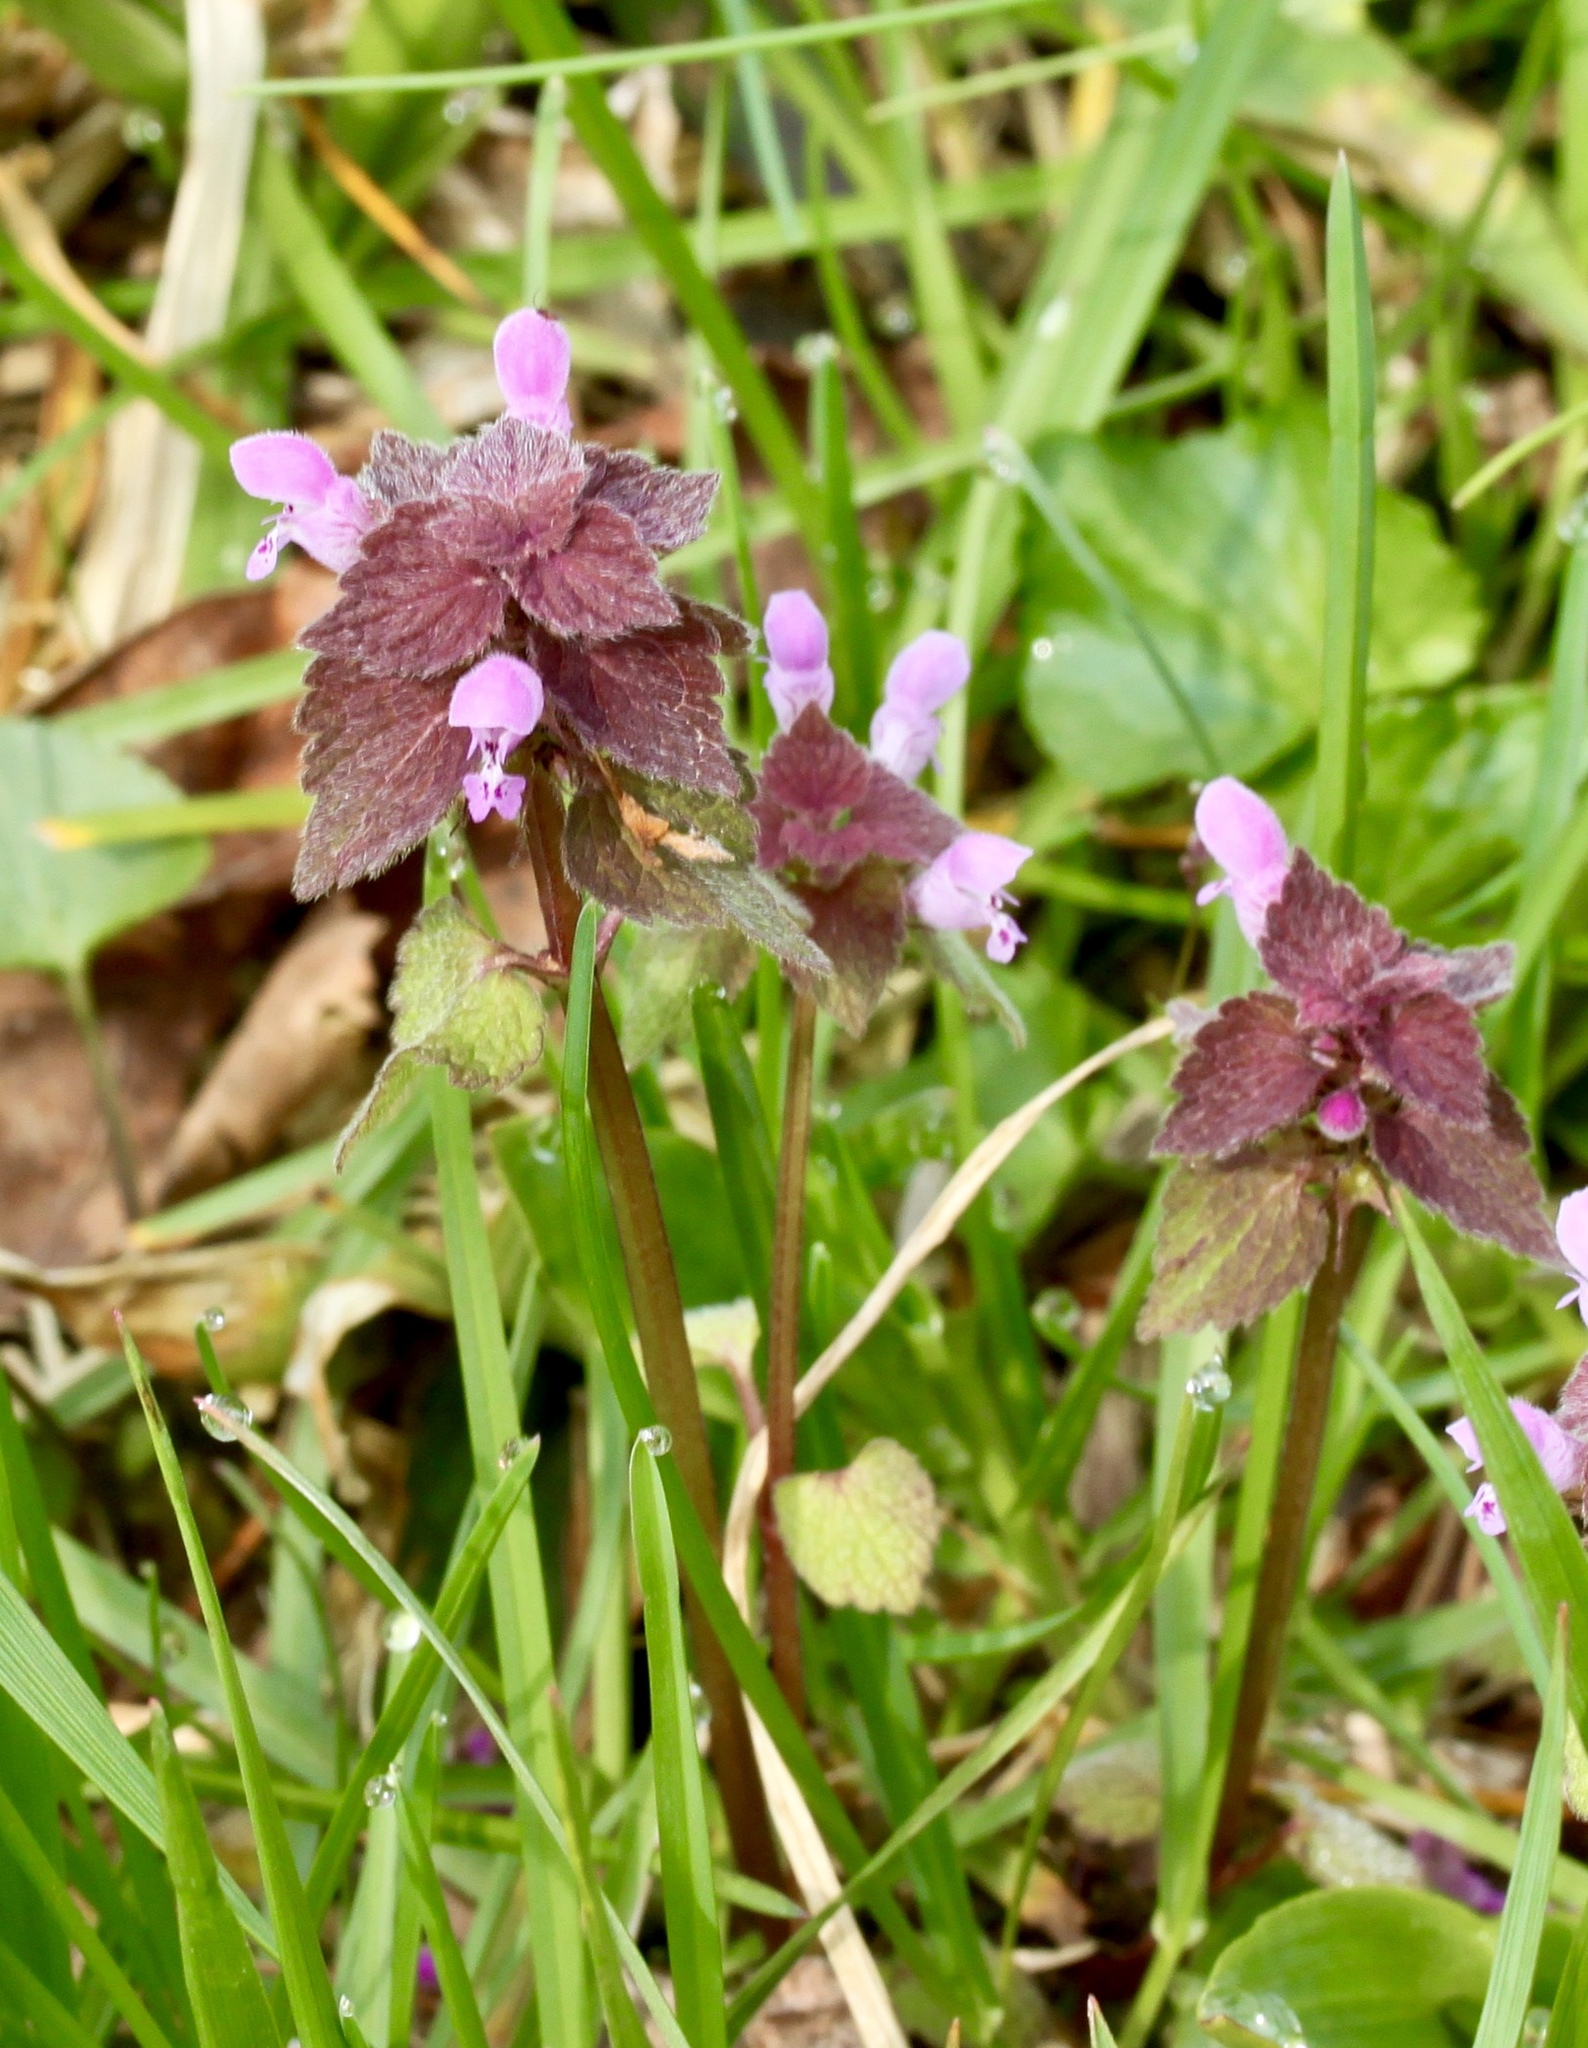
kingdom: Plantae
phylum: Tracheophyta
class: Magnoliopsida
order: Lamiales
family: Lamiaceae
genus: Lamium
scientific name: Lamium purpureum
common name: Red dead-nettle
